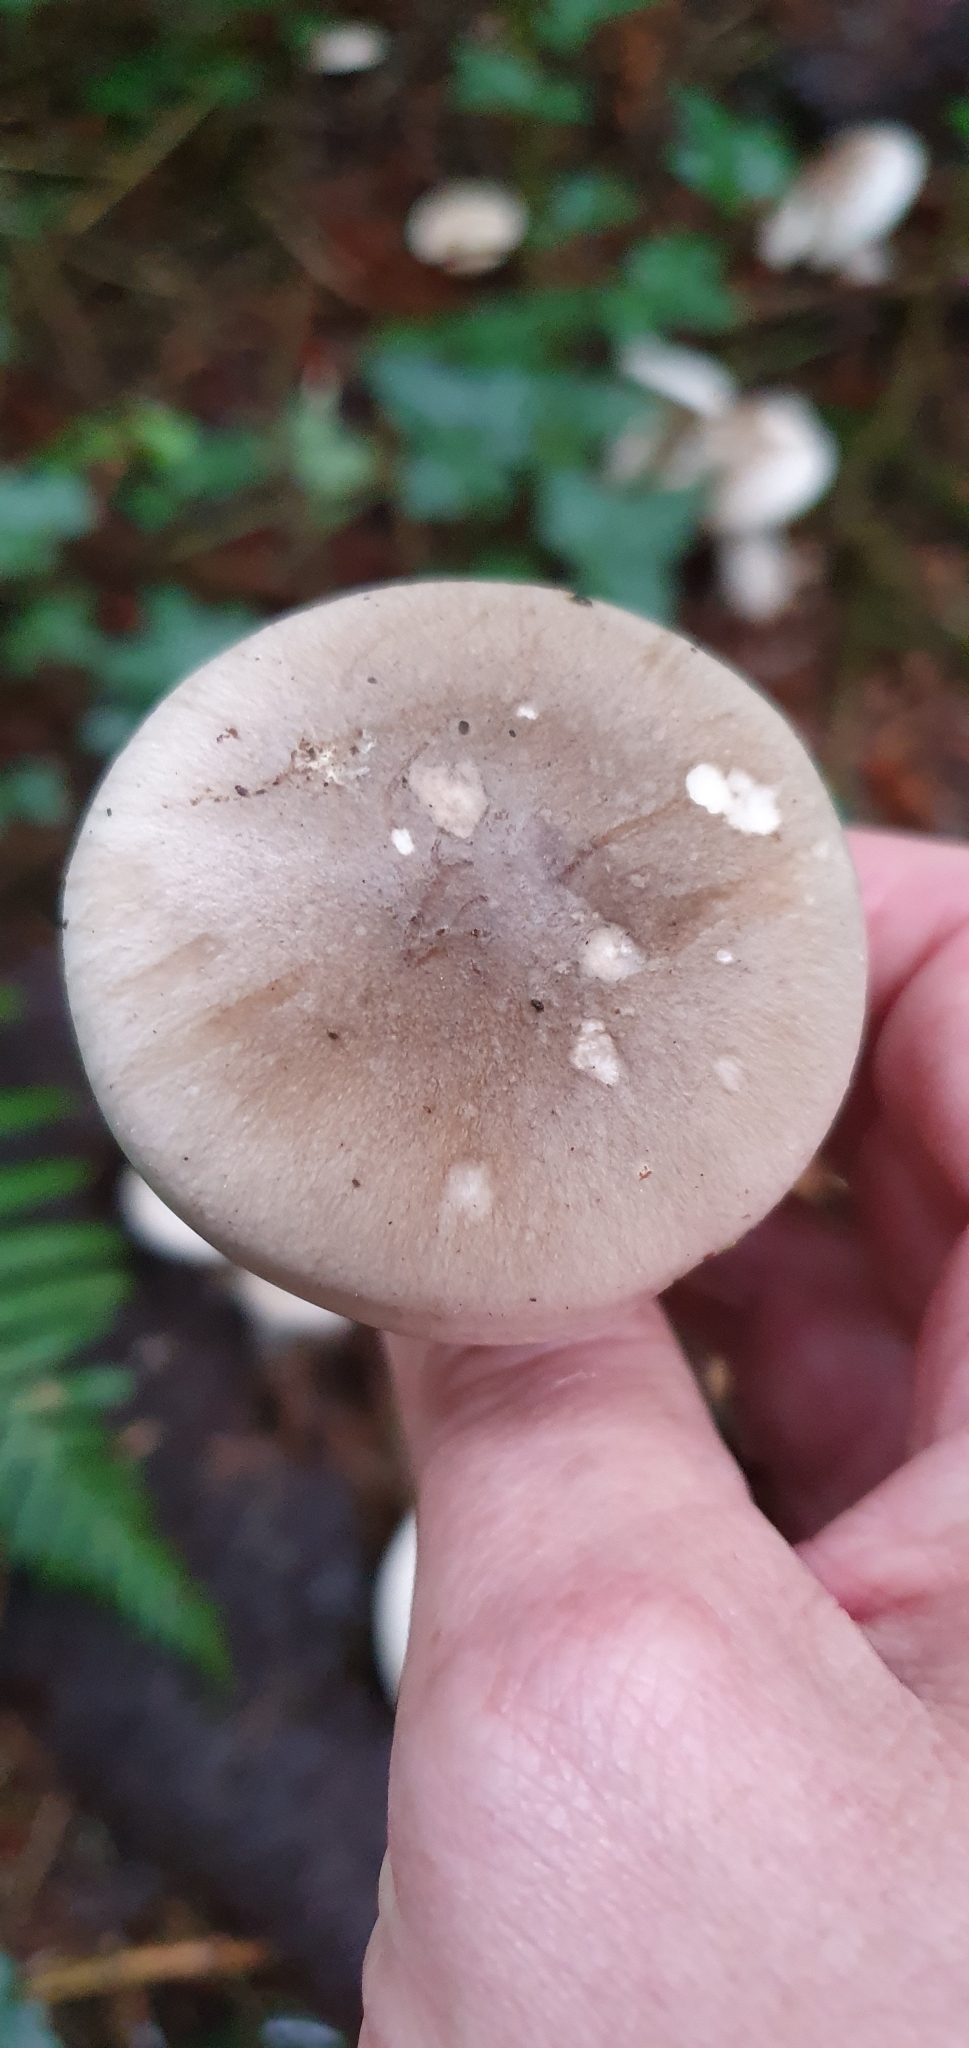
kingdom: Fungi
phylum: Basidiomycota
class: Agaricomycetes
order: Agaricales
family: Tricholomataceae
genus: Clitocybe
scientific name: Clitocybe nebularis
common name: Clouded agaric
